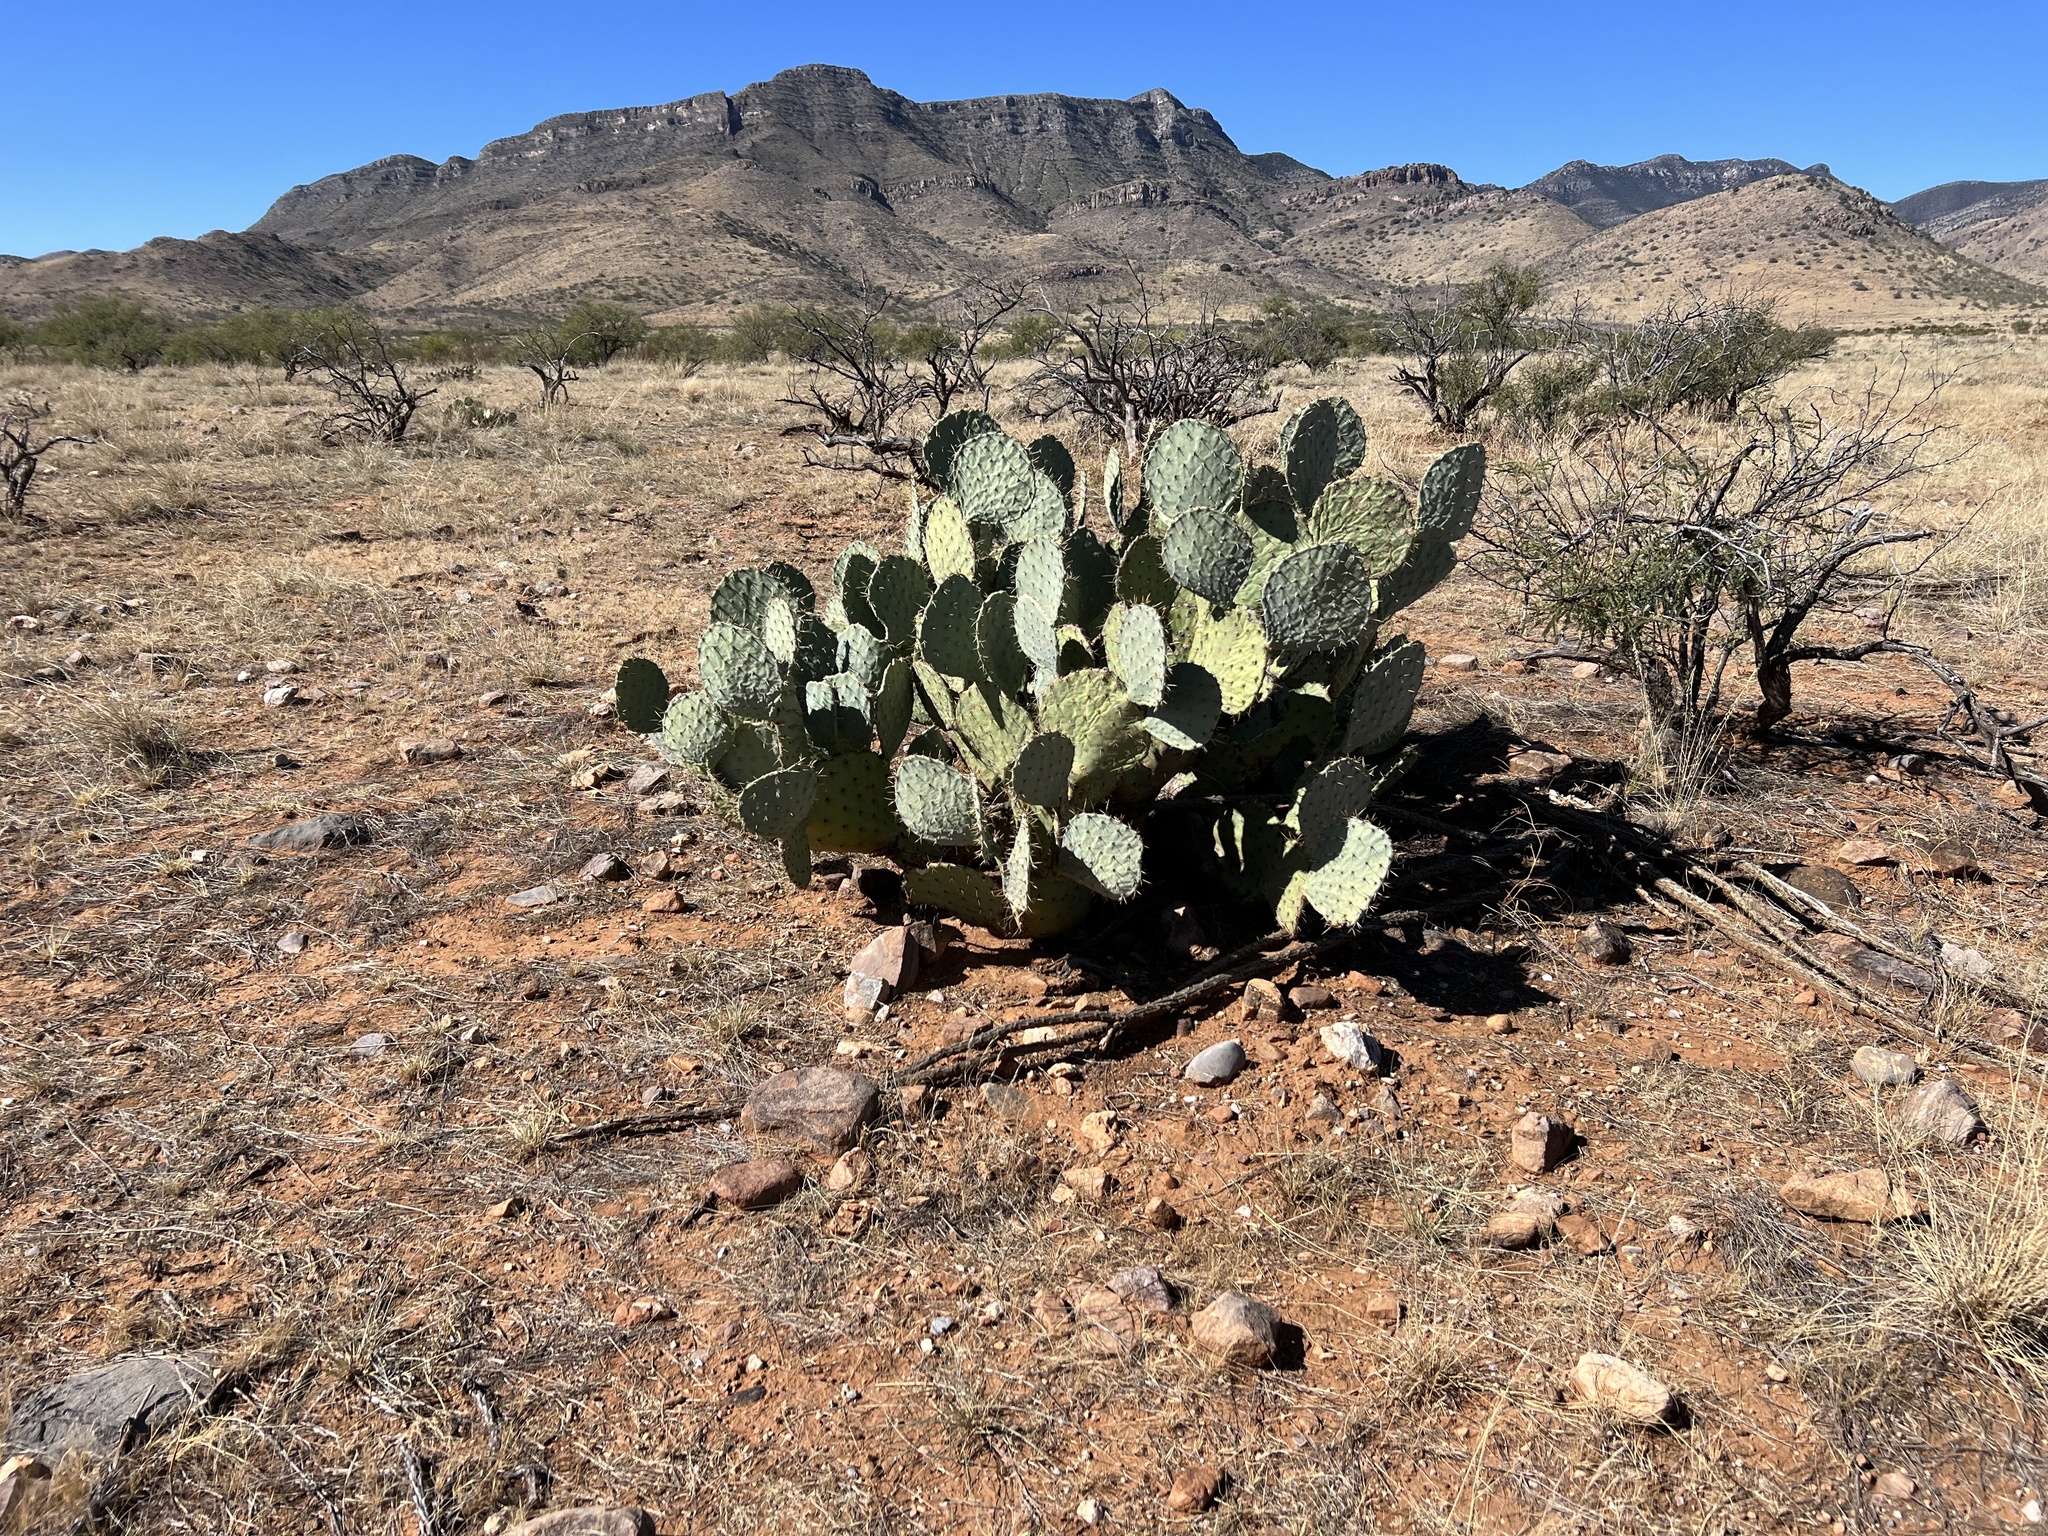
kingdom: Plantae
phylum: Tracheophyta
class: Magnoliopsida
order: Caryophyllales
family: Cactaceae
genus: Opuntia
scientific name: Opuntia engelmannii
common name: Cactus-apple
